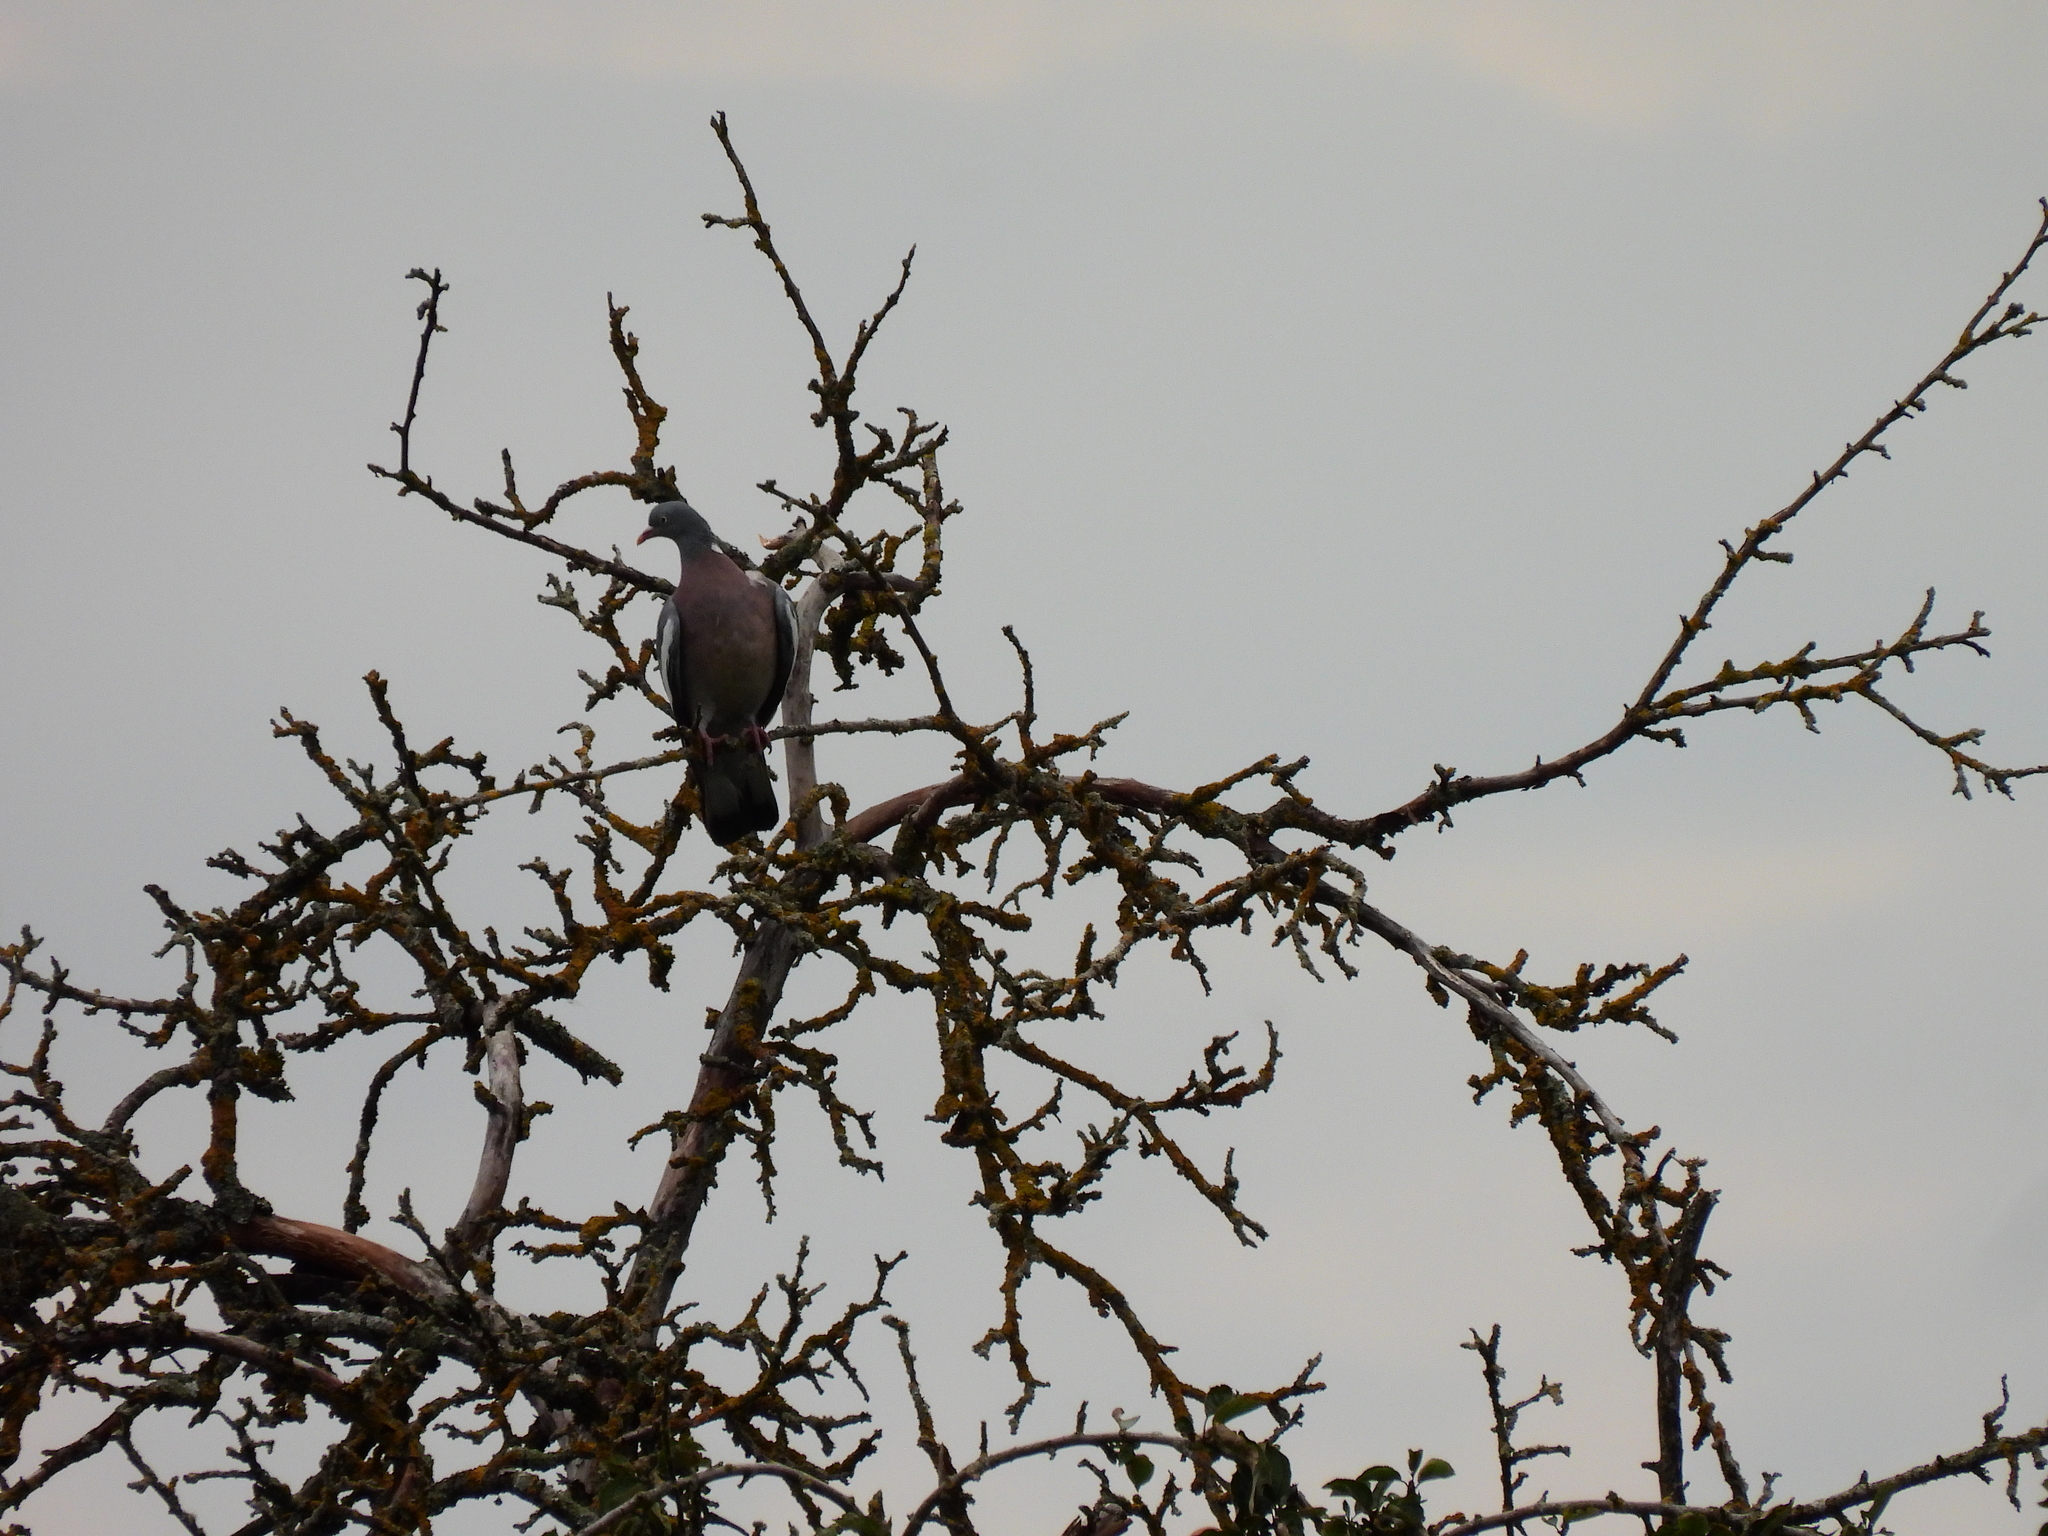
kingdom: Animalia
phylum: Chordata
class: Aves
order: Columbiformes
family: Columbidae
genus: Columba
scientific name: Columba palumbus
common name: Common wood pigeon
